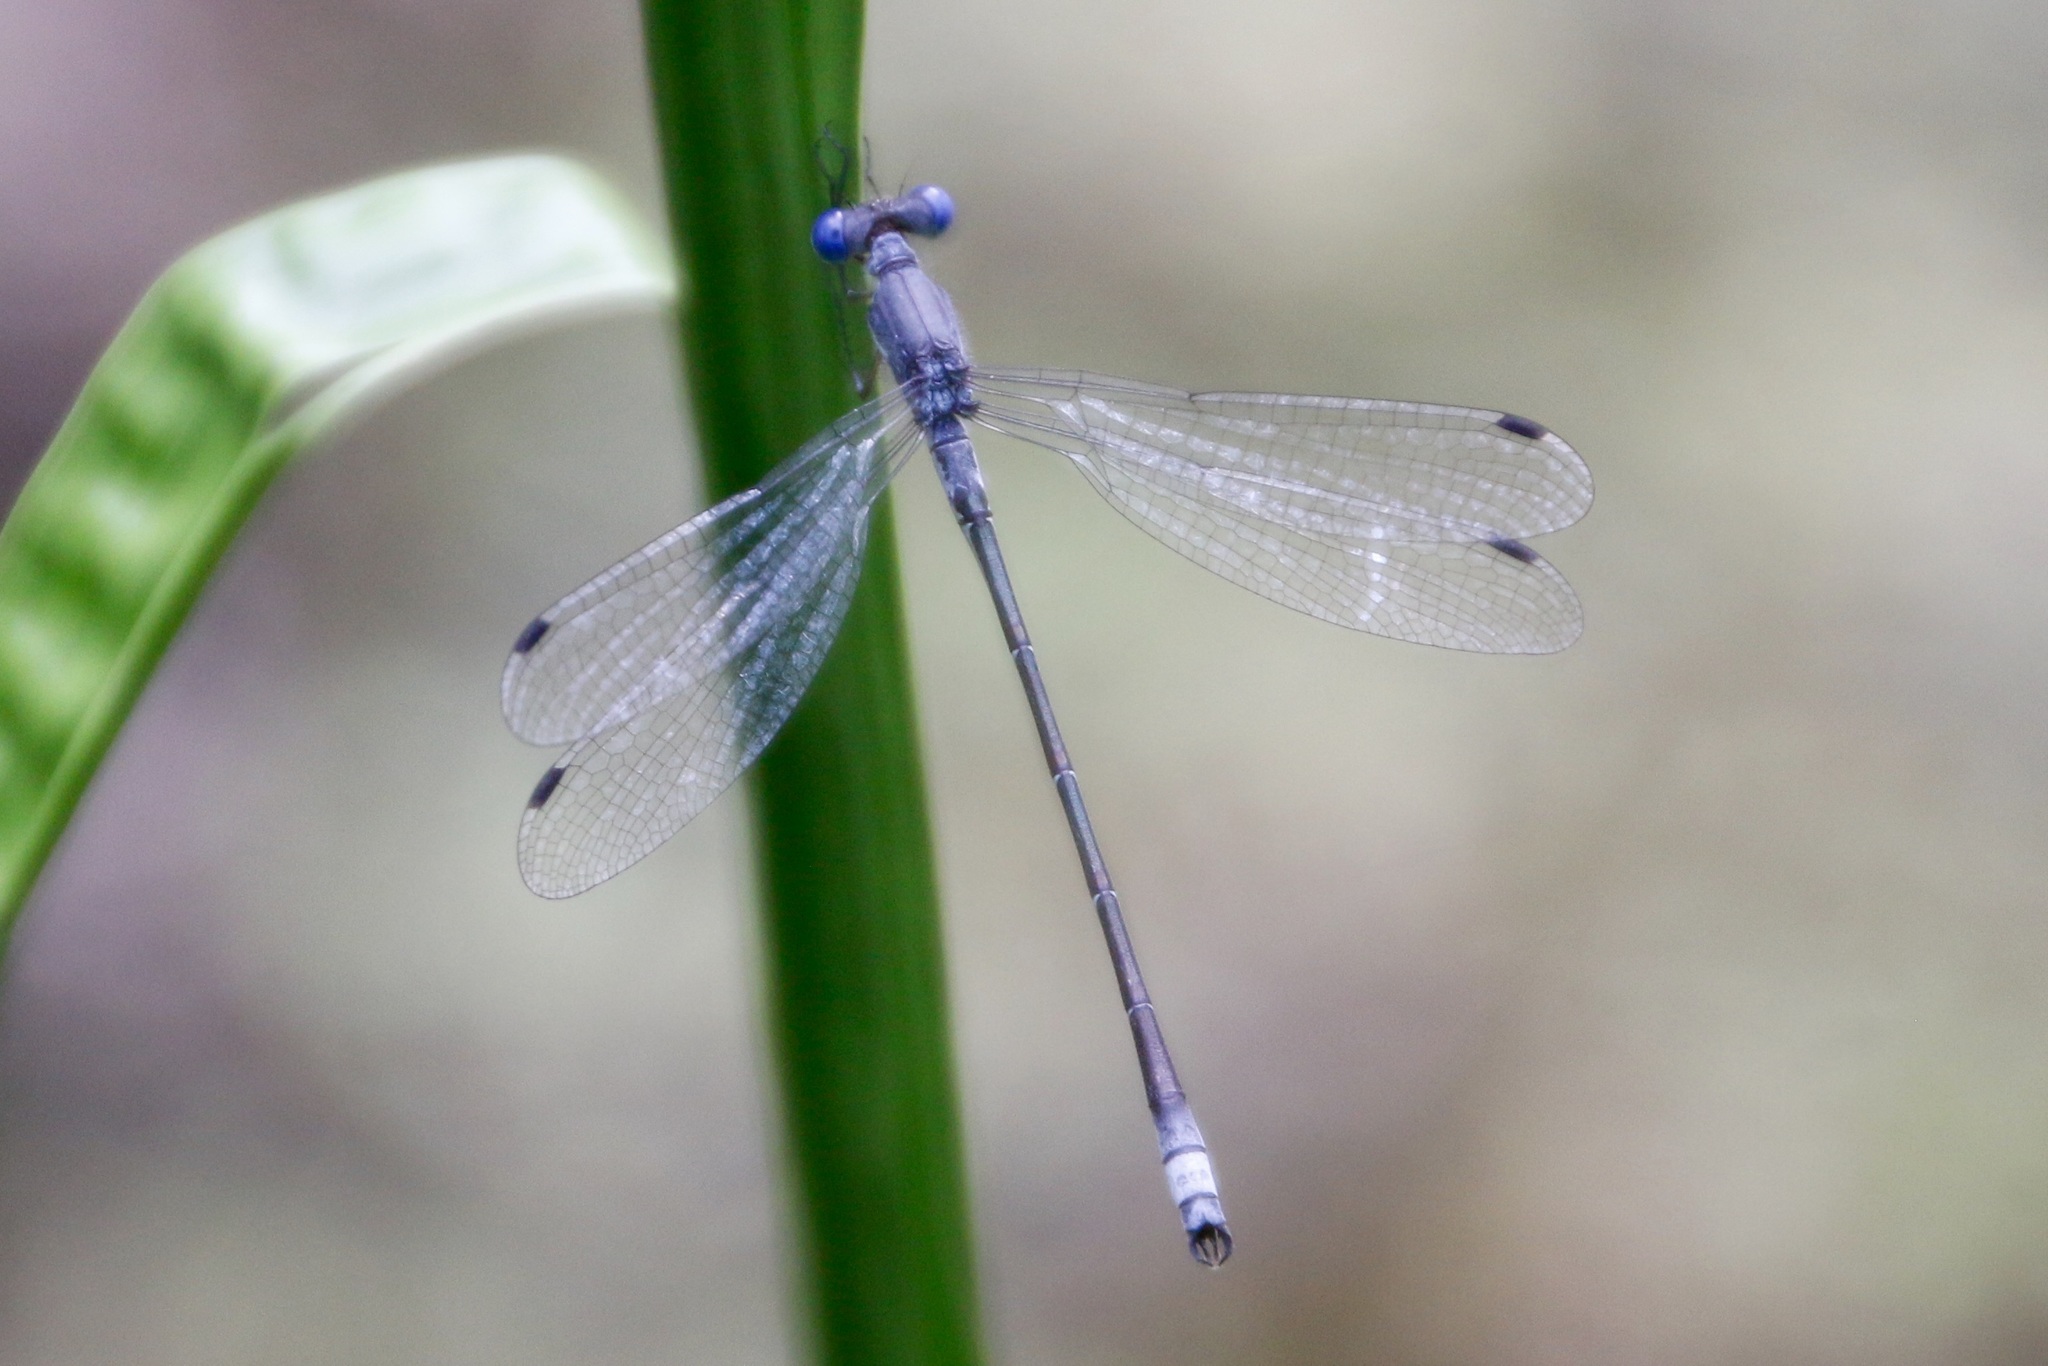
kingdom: Animalia
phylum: Arthropoda
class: Insecta
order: Odonata
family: Lestidae
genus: Lestes
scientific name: Lestes forcipatus
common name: Sweetflag spreadwing
